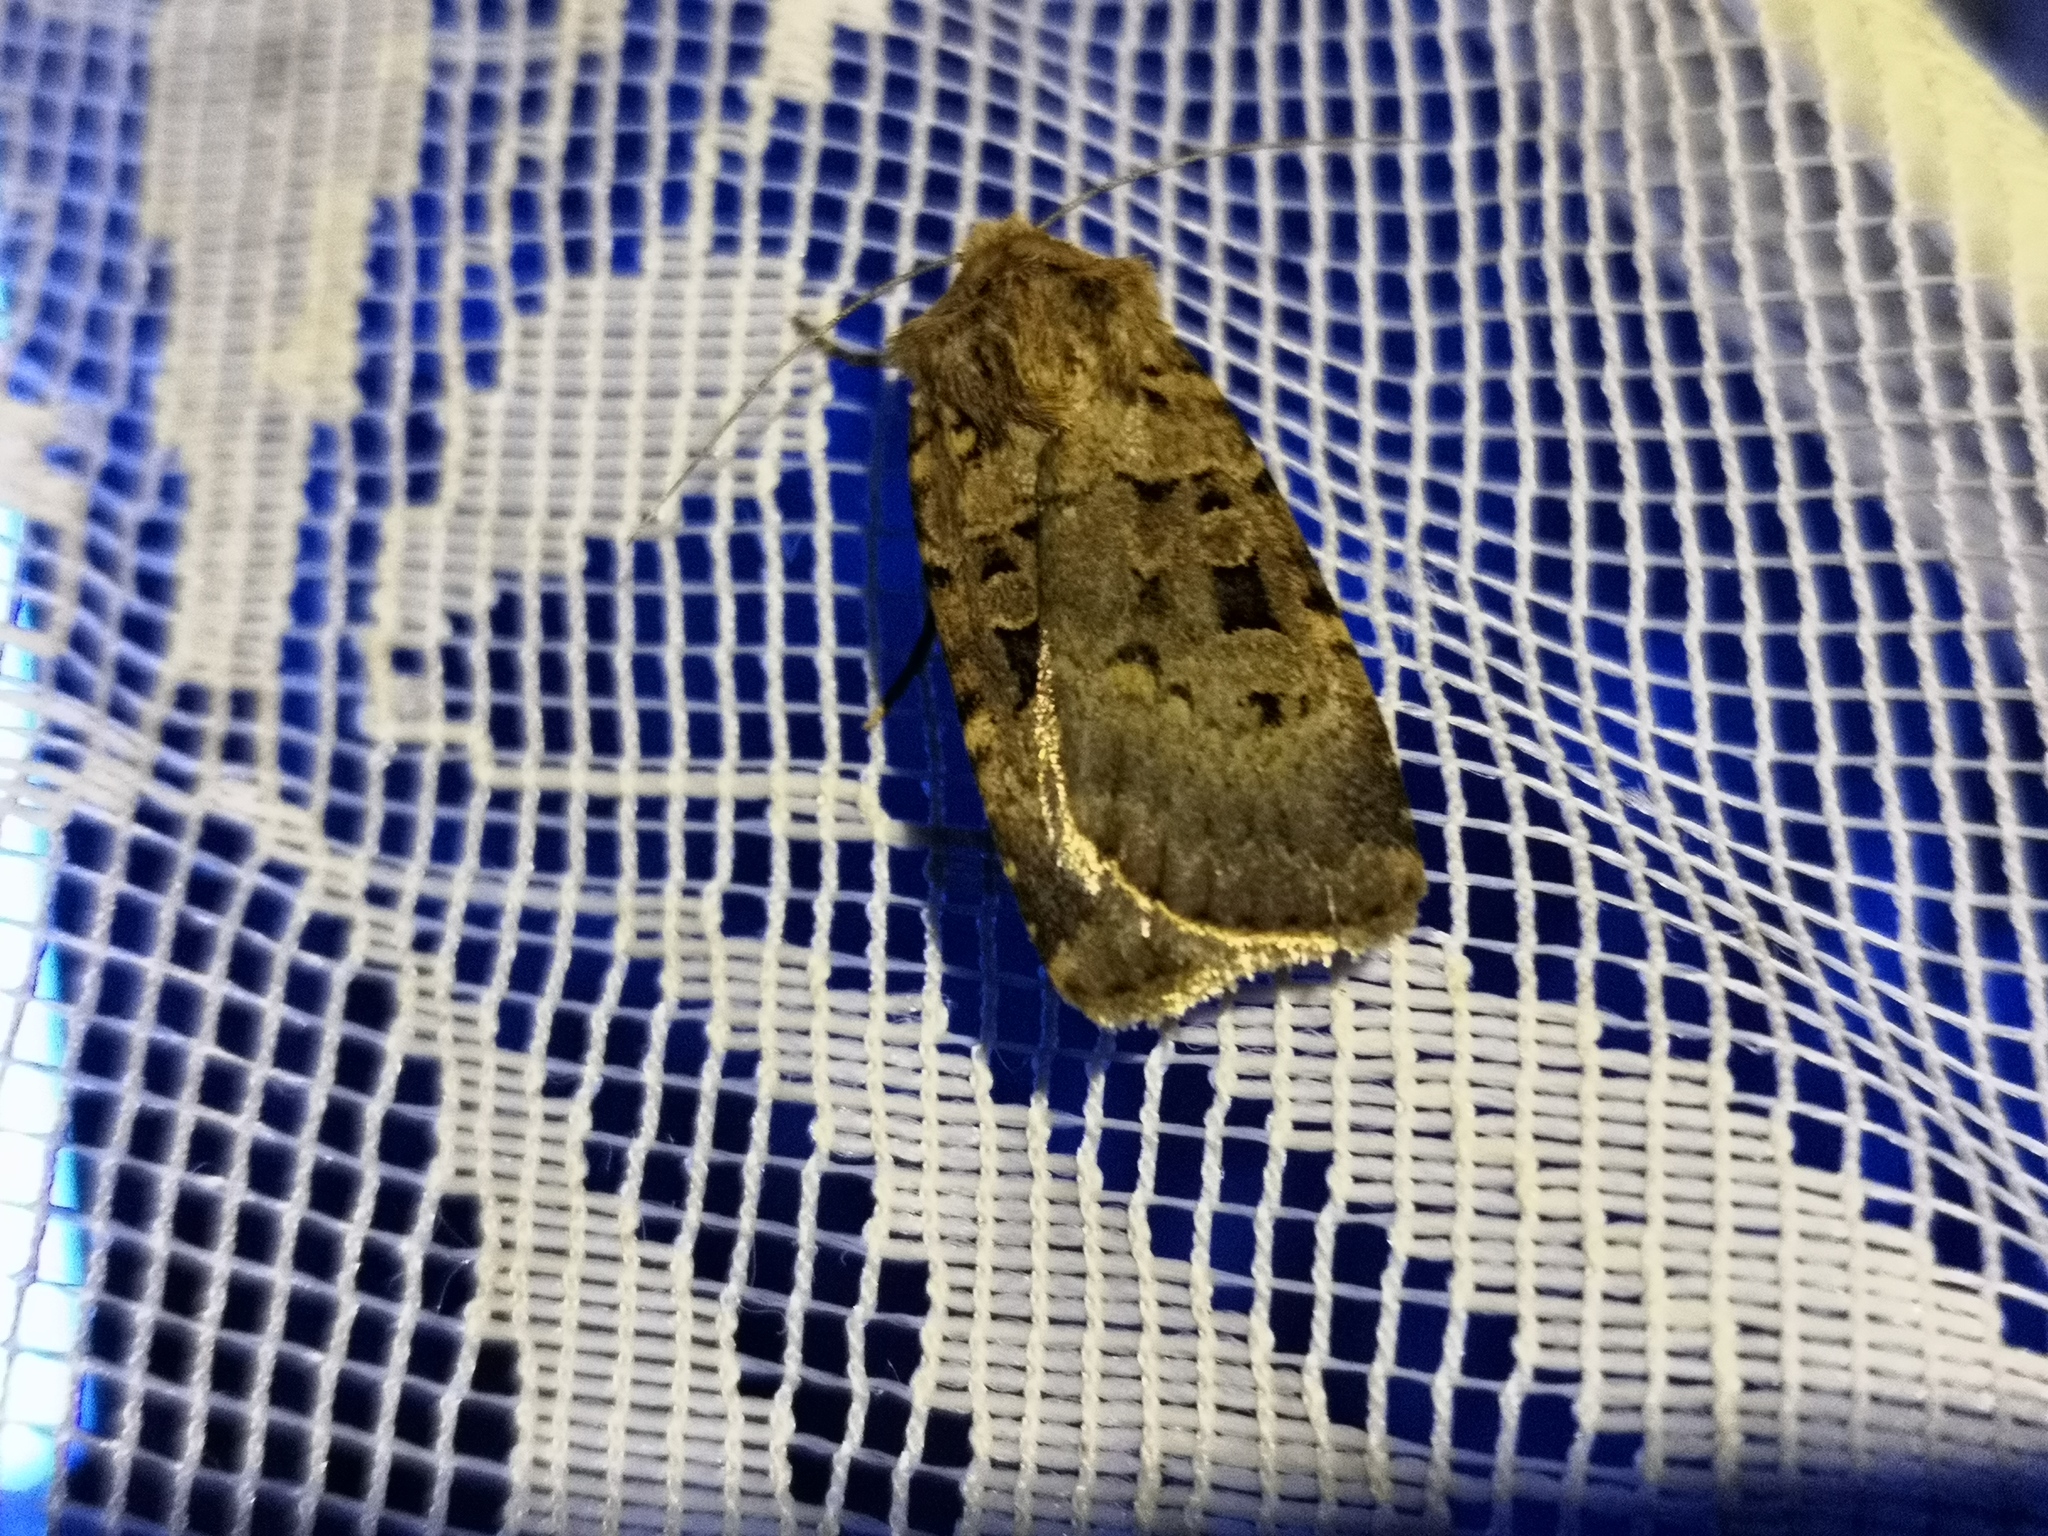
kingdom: Animalia
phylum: Arthropoda
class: Insecta
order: Lepidoptera
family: Noctuidae
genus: Chersotis
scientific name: Chersotis multangula
